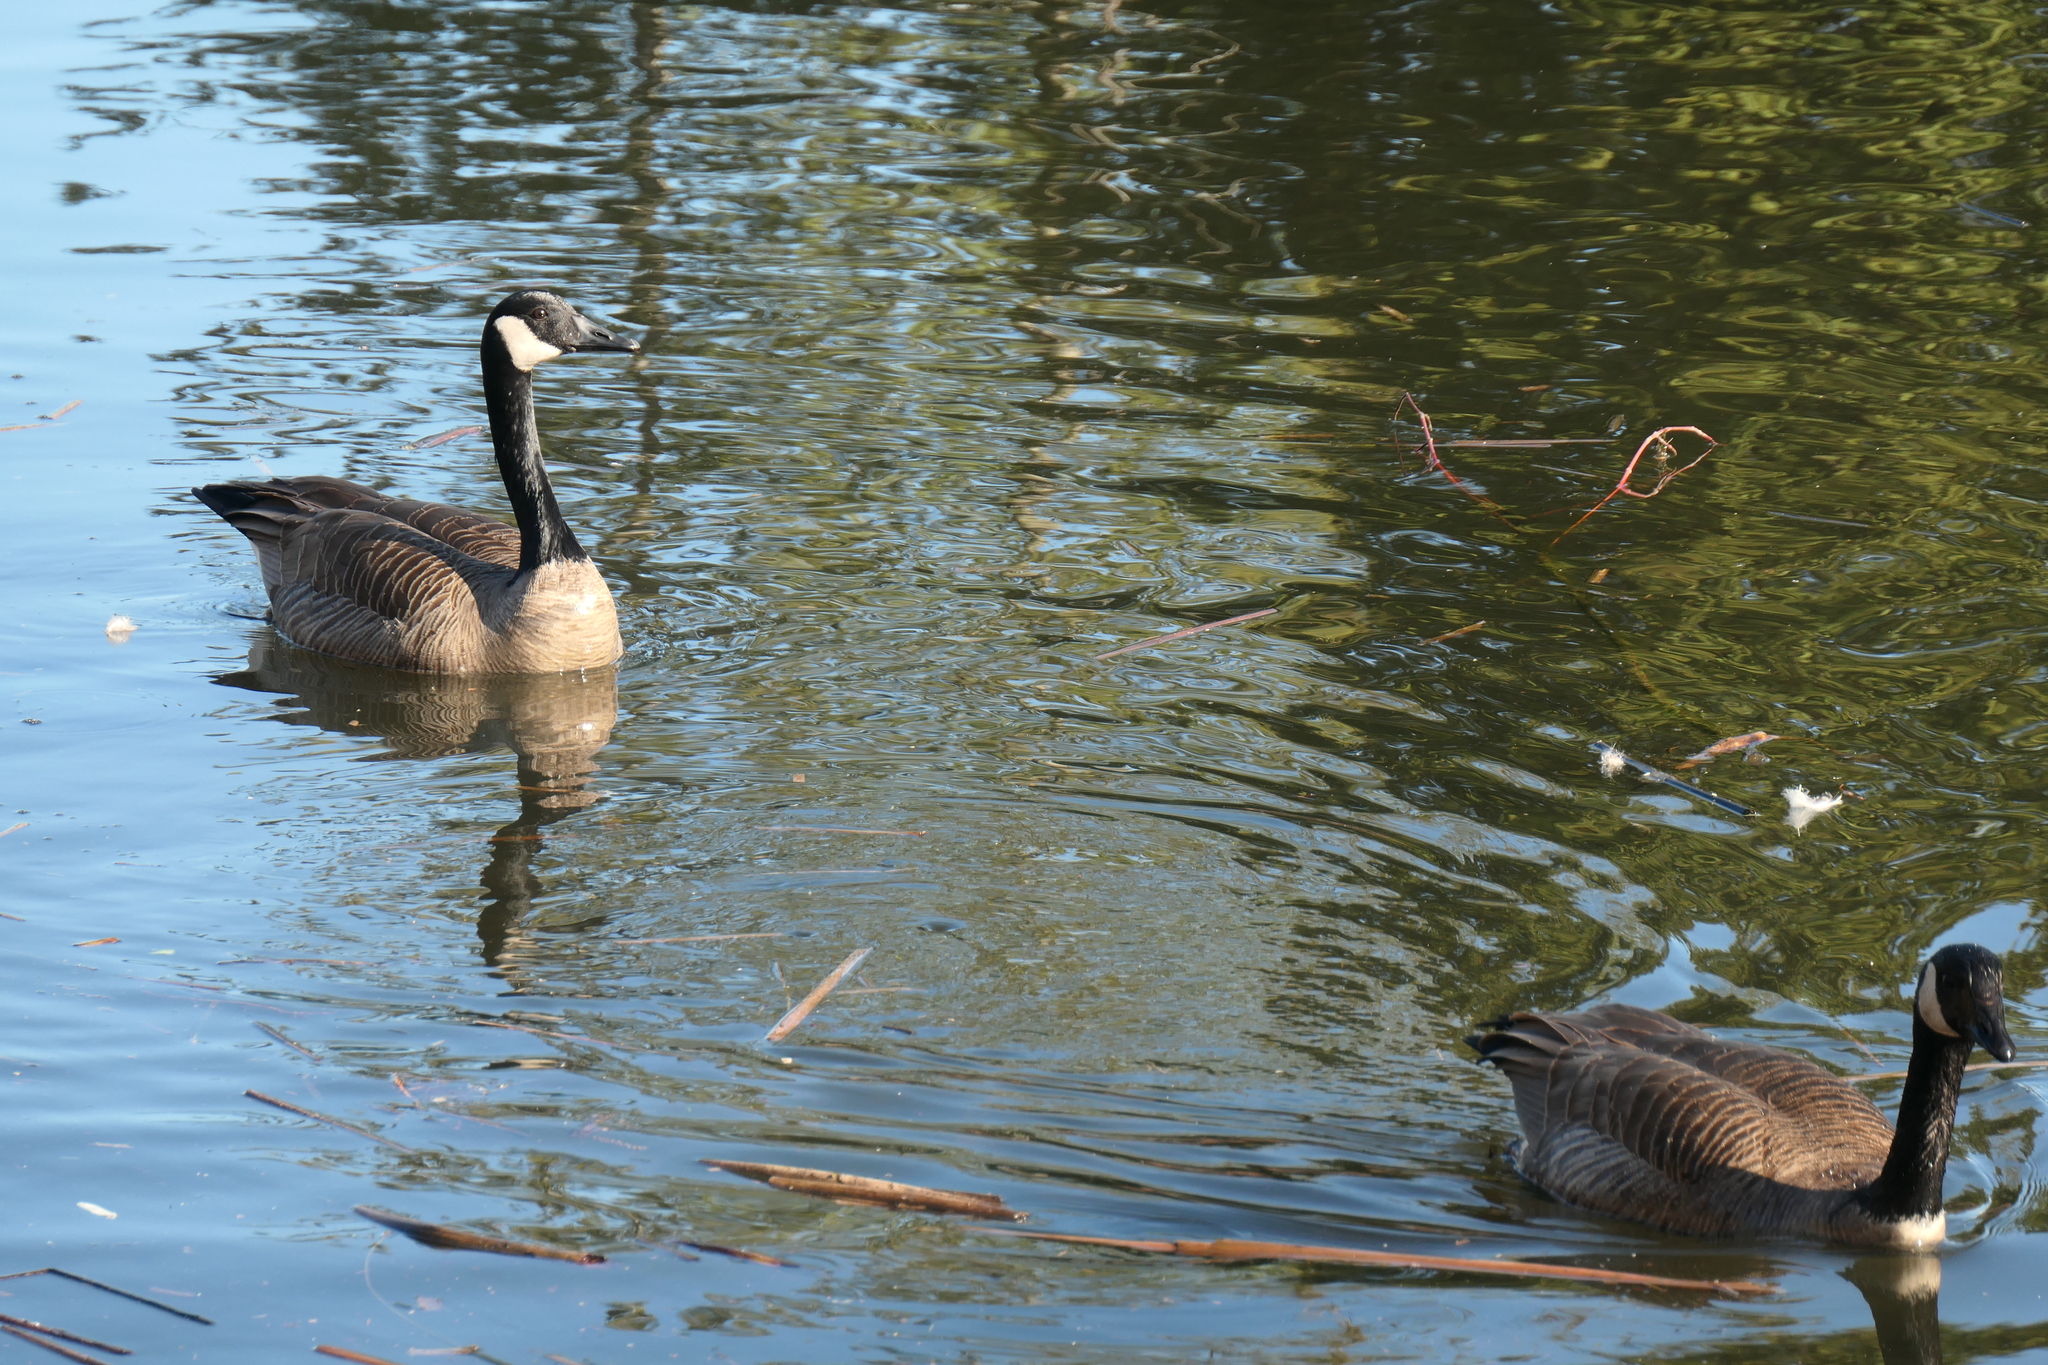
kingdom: Animalia
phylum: Chordata
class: Aves
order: Anseriformes
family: Anatidae
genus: Branta
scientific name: Branta canadensis
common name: Canada goose
